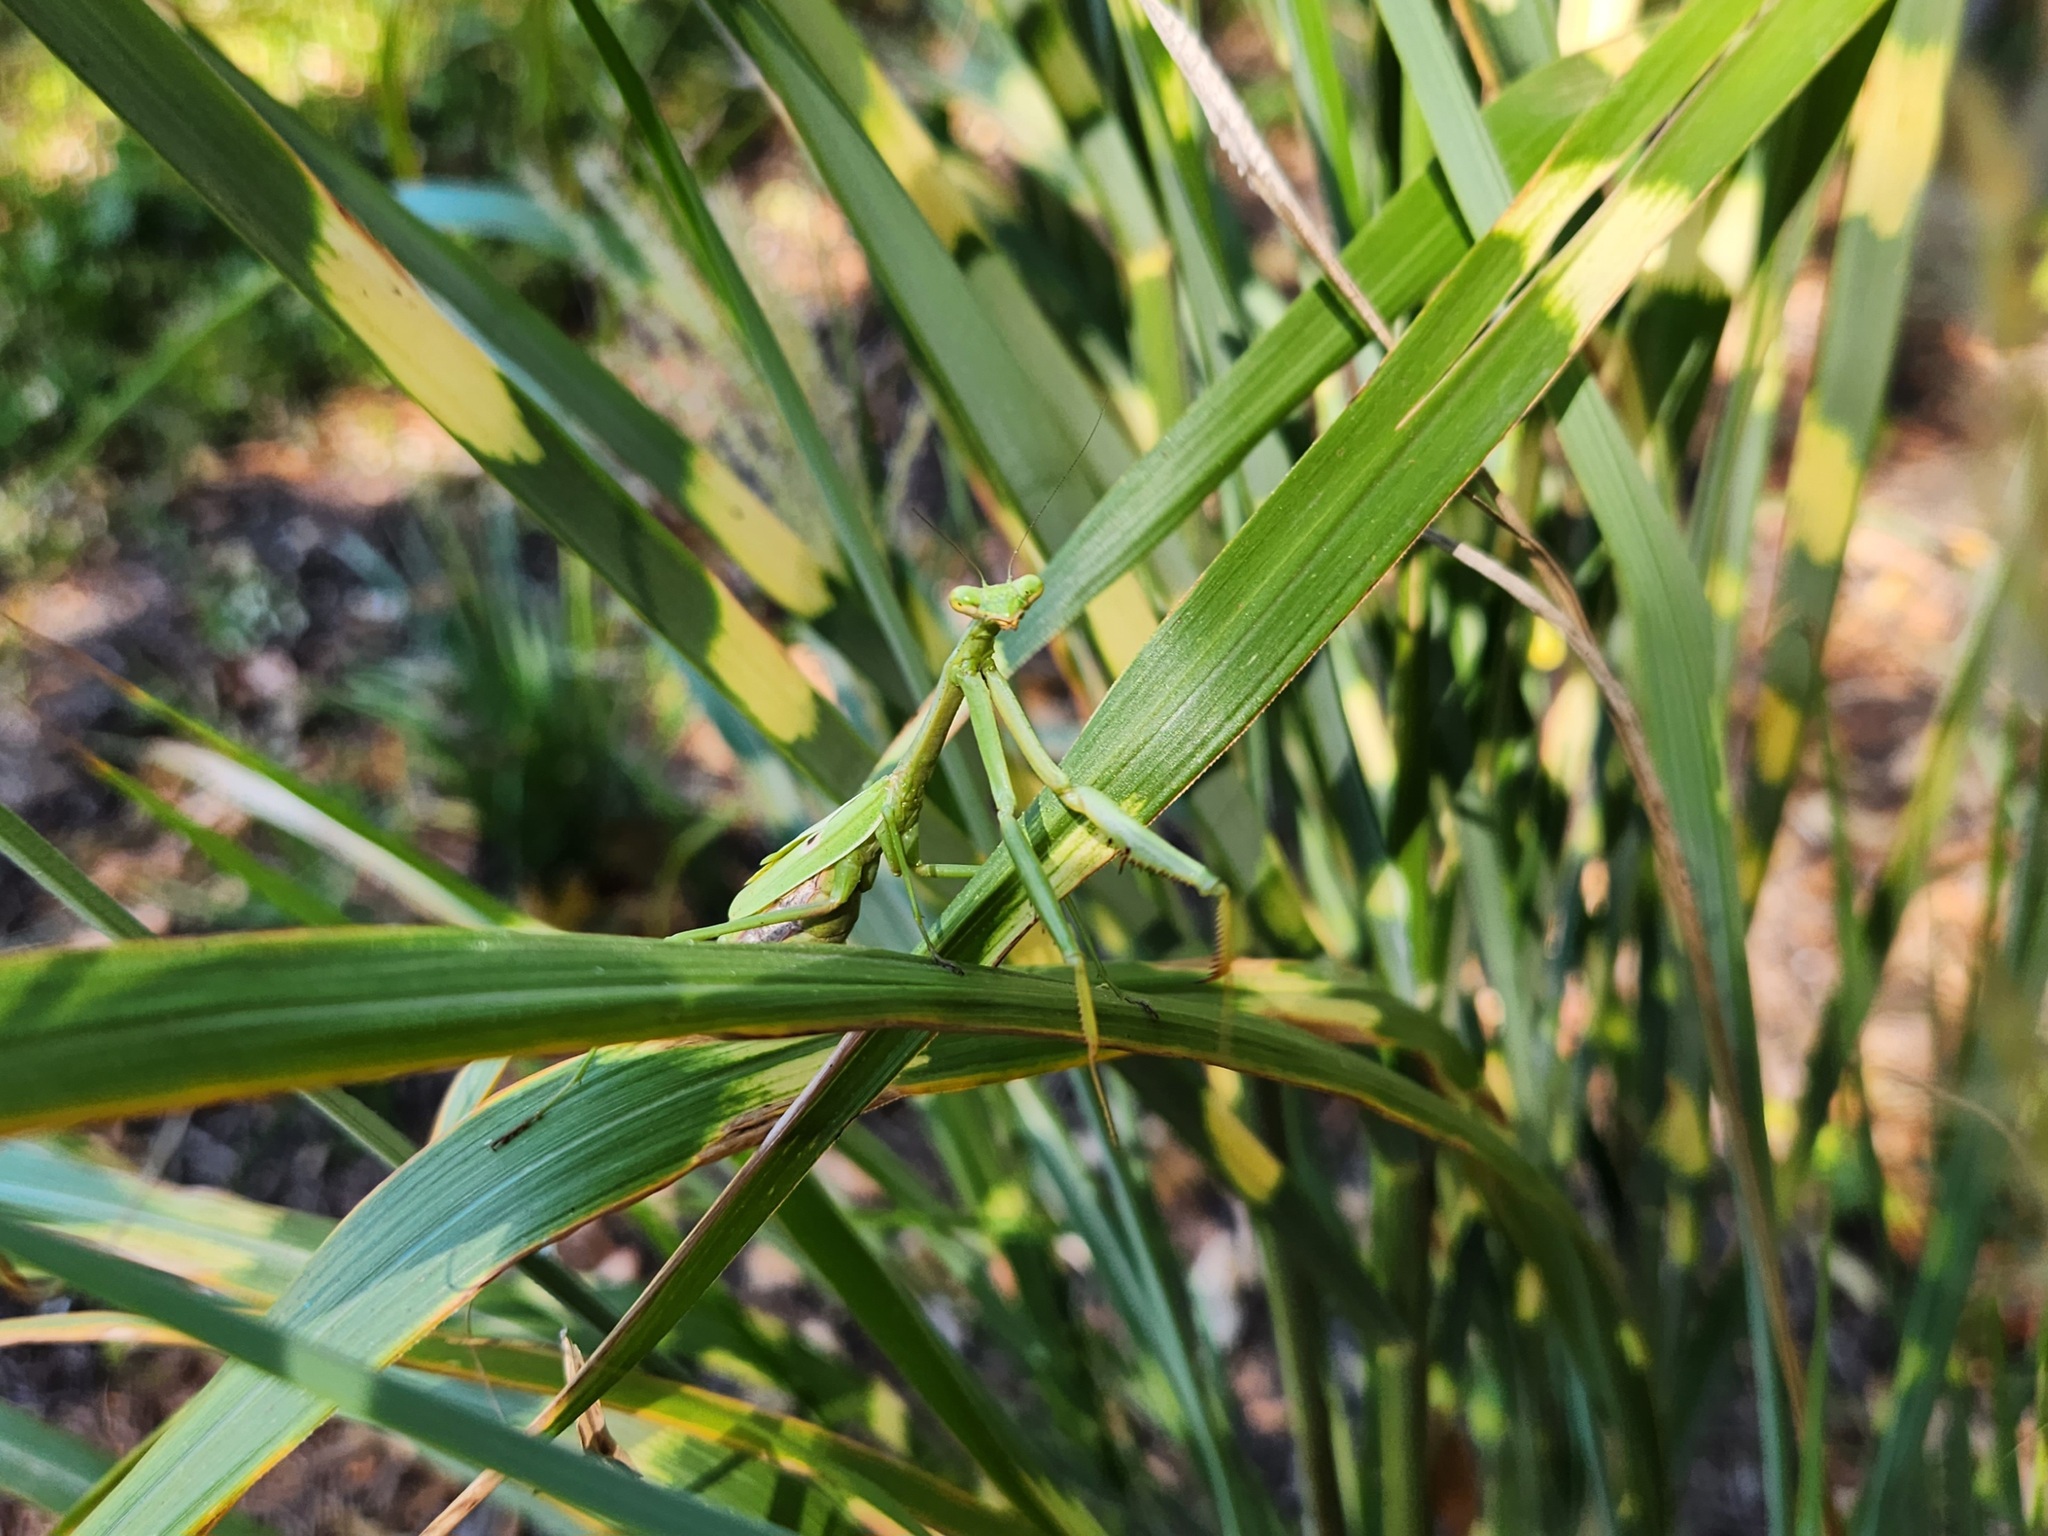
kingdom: Animalia
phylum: Arthropoda
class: Insecta
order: Mantodea
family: Mantidae
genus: Stagmomantis
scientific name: Stagmomantis carolina
